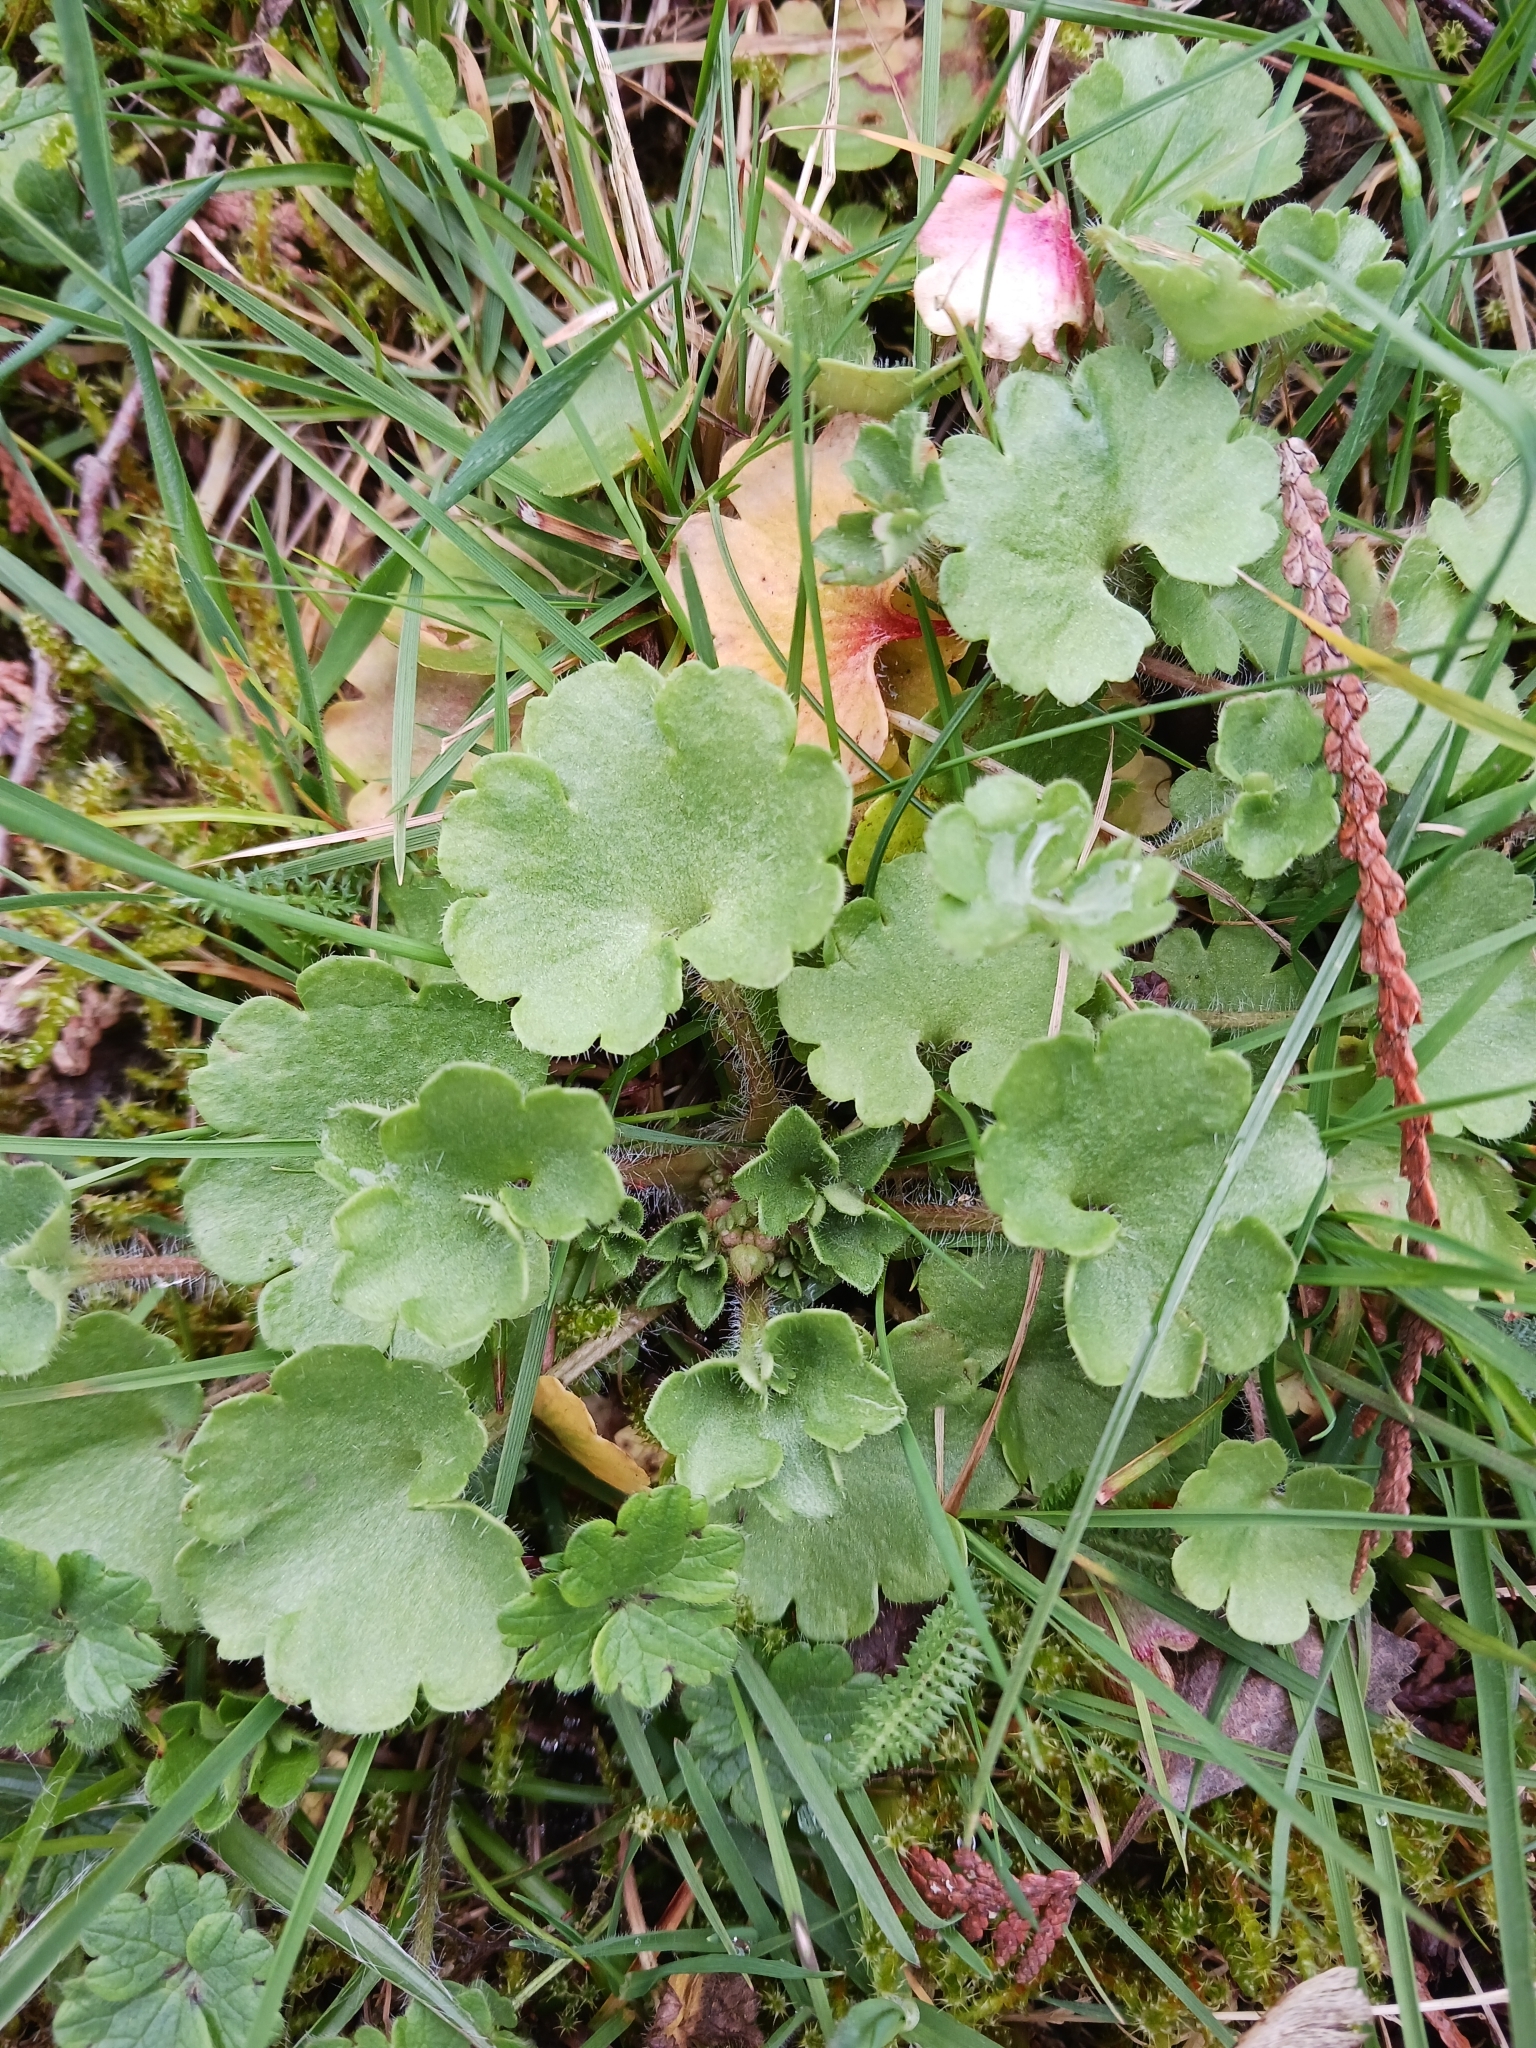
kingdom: Plantae
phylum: Tracheophyta
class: Magnoliopsida
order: Saxifragales
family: Saxifragaceae
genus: Saxifraga
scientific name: Saxifraga granulata
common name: Meadow saxifrage
